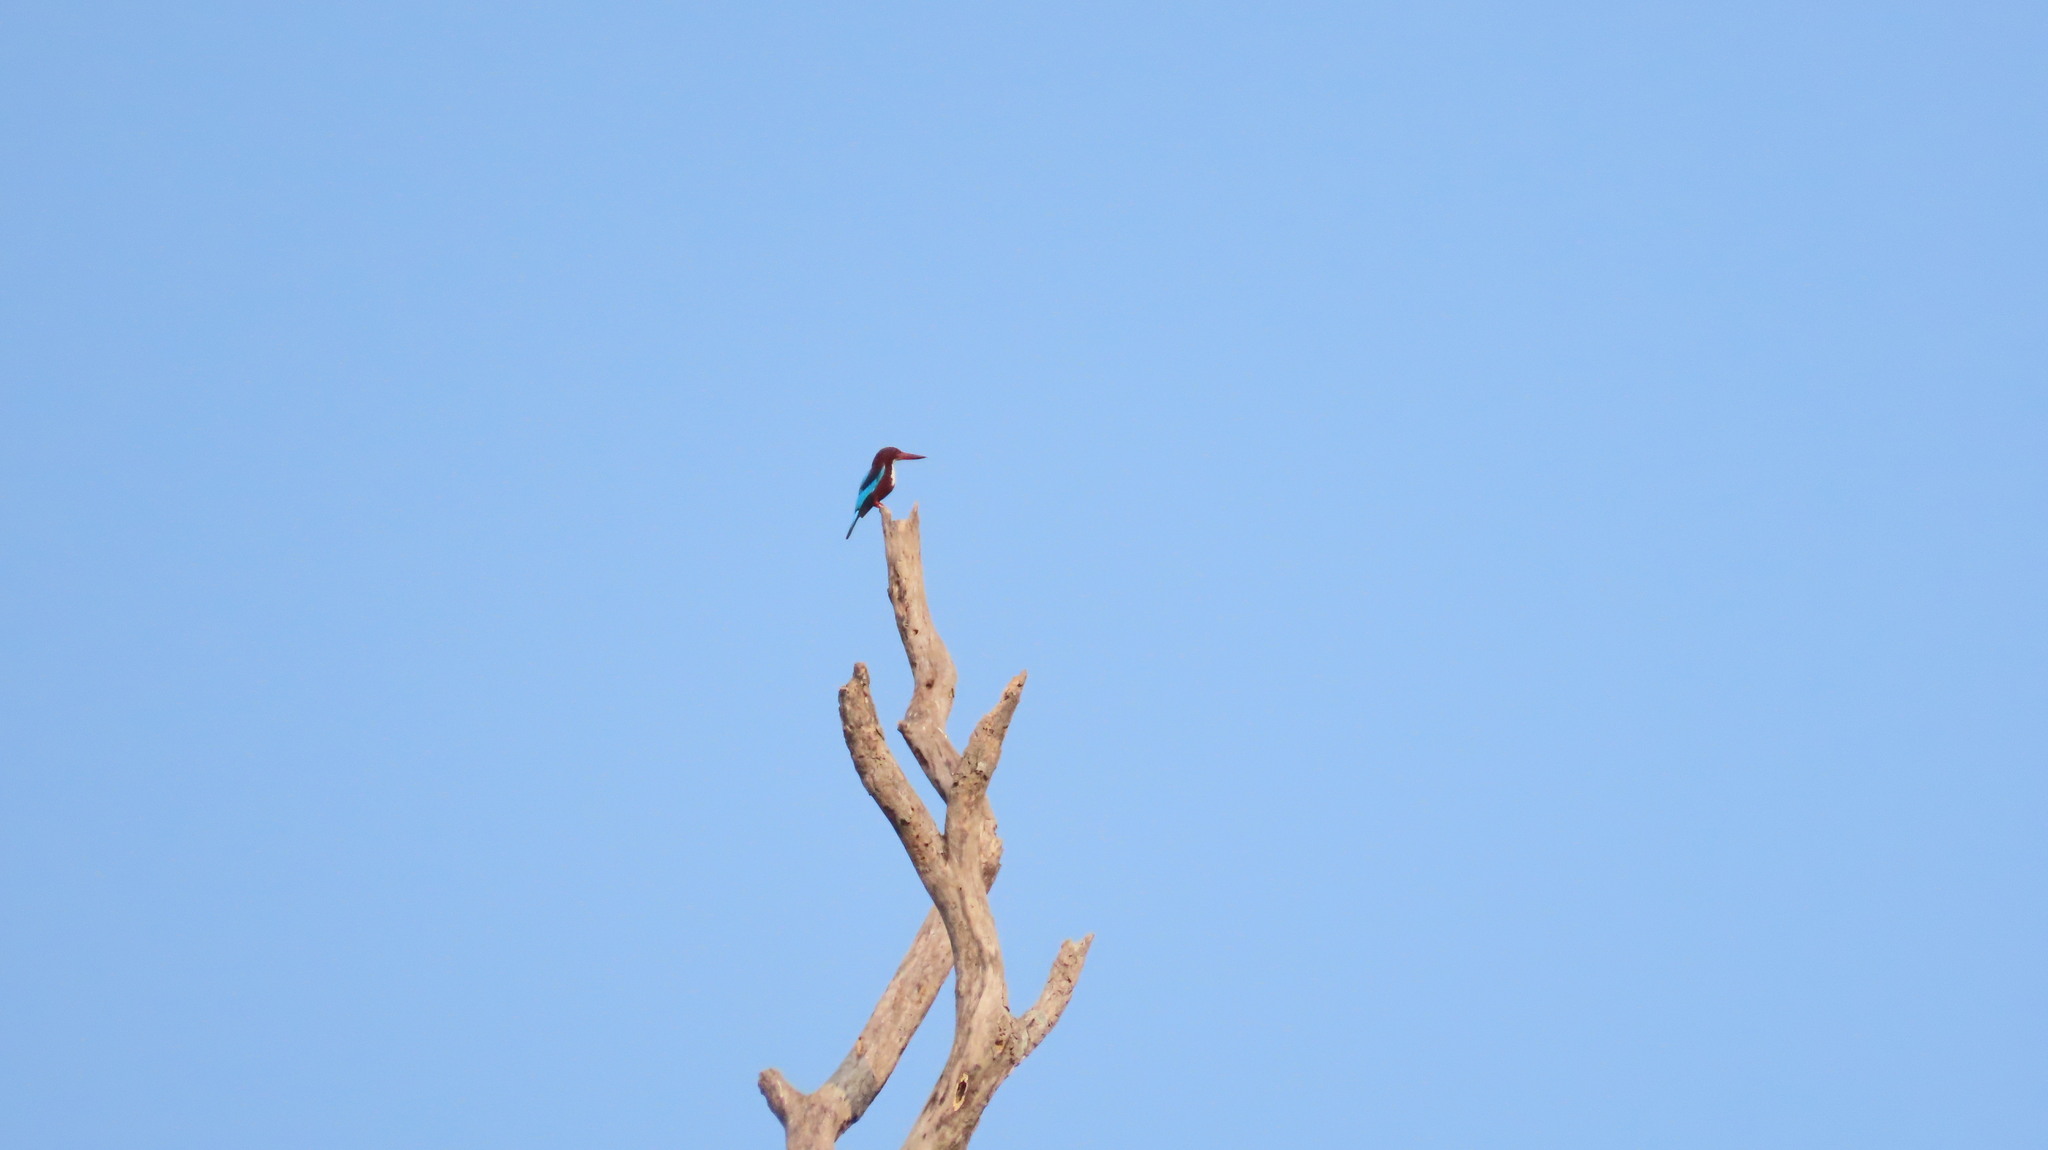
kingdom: Animalia
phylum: Chordata
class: Aves
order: Coraciiformes
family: Alcedinidae
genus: Halcyon
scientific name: Halcyon smyrnensis
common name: White-throated kingfisher
